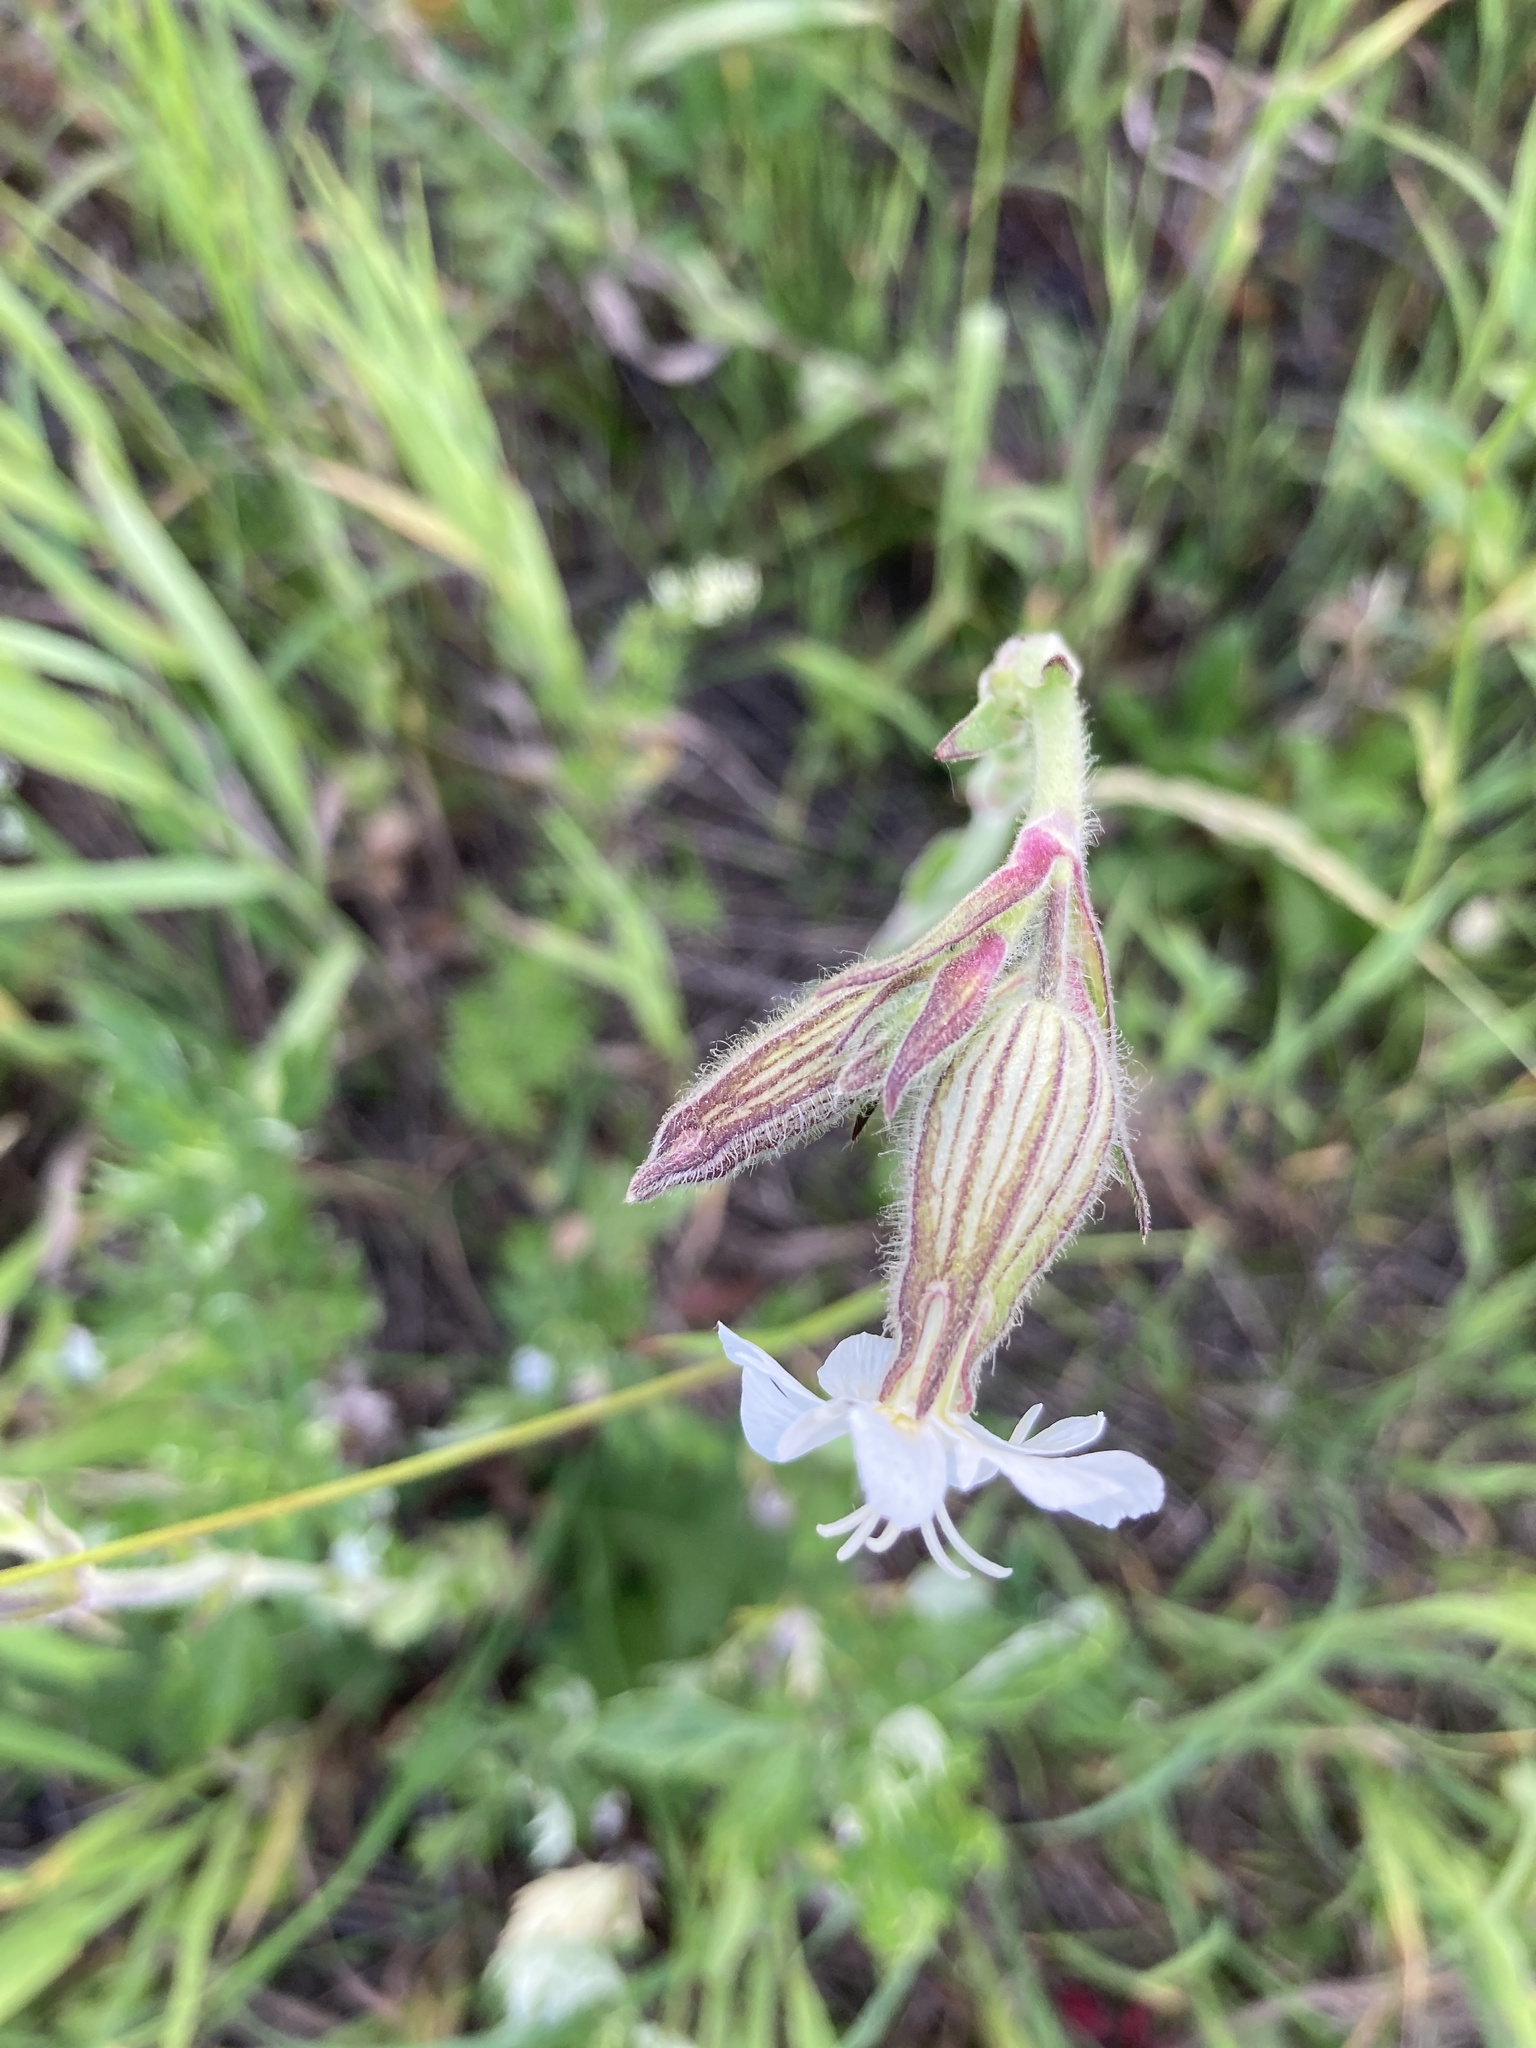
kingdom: Plantae
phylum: Tracheophyta
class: Magnoliopsida
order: Caryophyllales
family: Caryophyllaceae
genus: Silene
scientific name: Silene latifolia
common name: White campion
